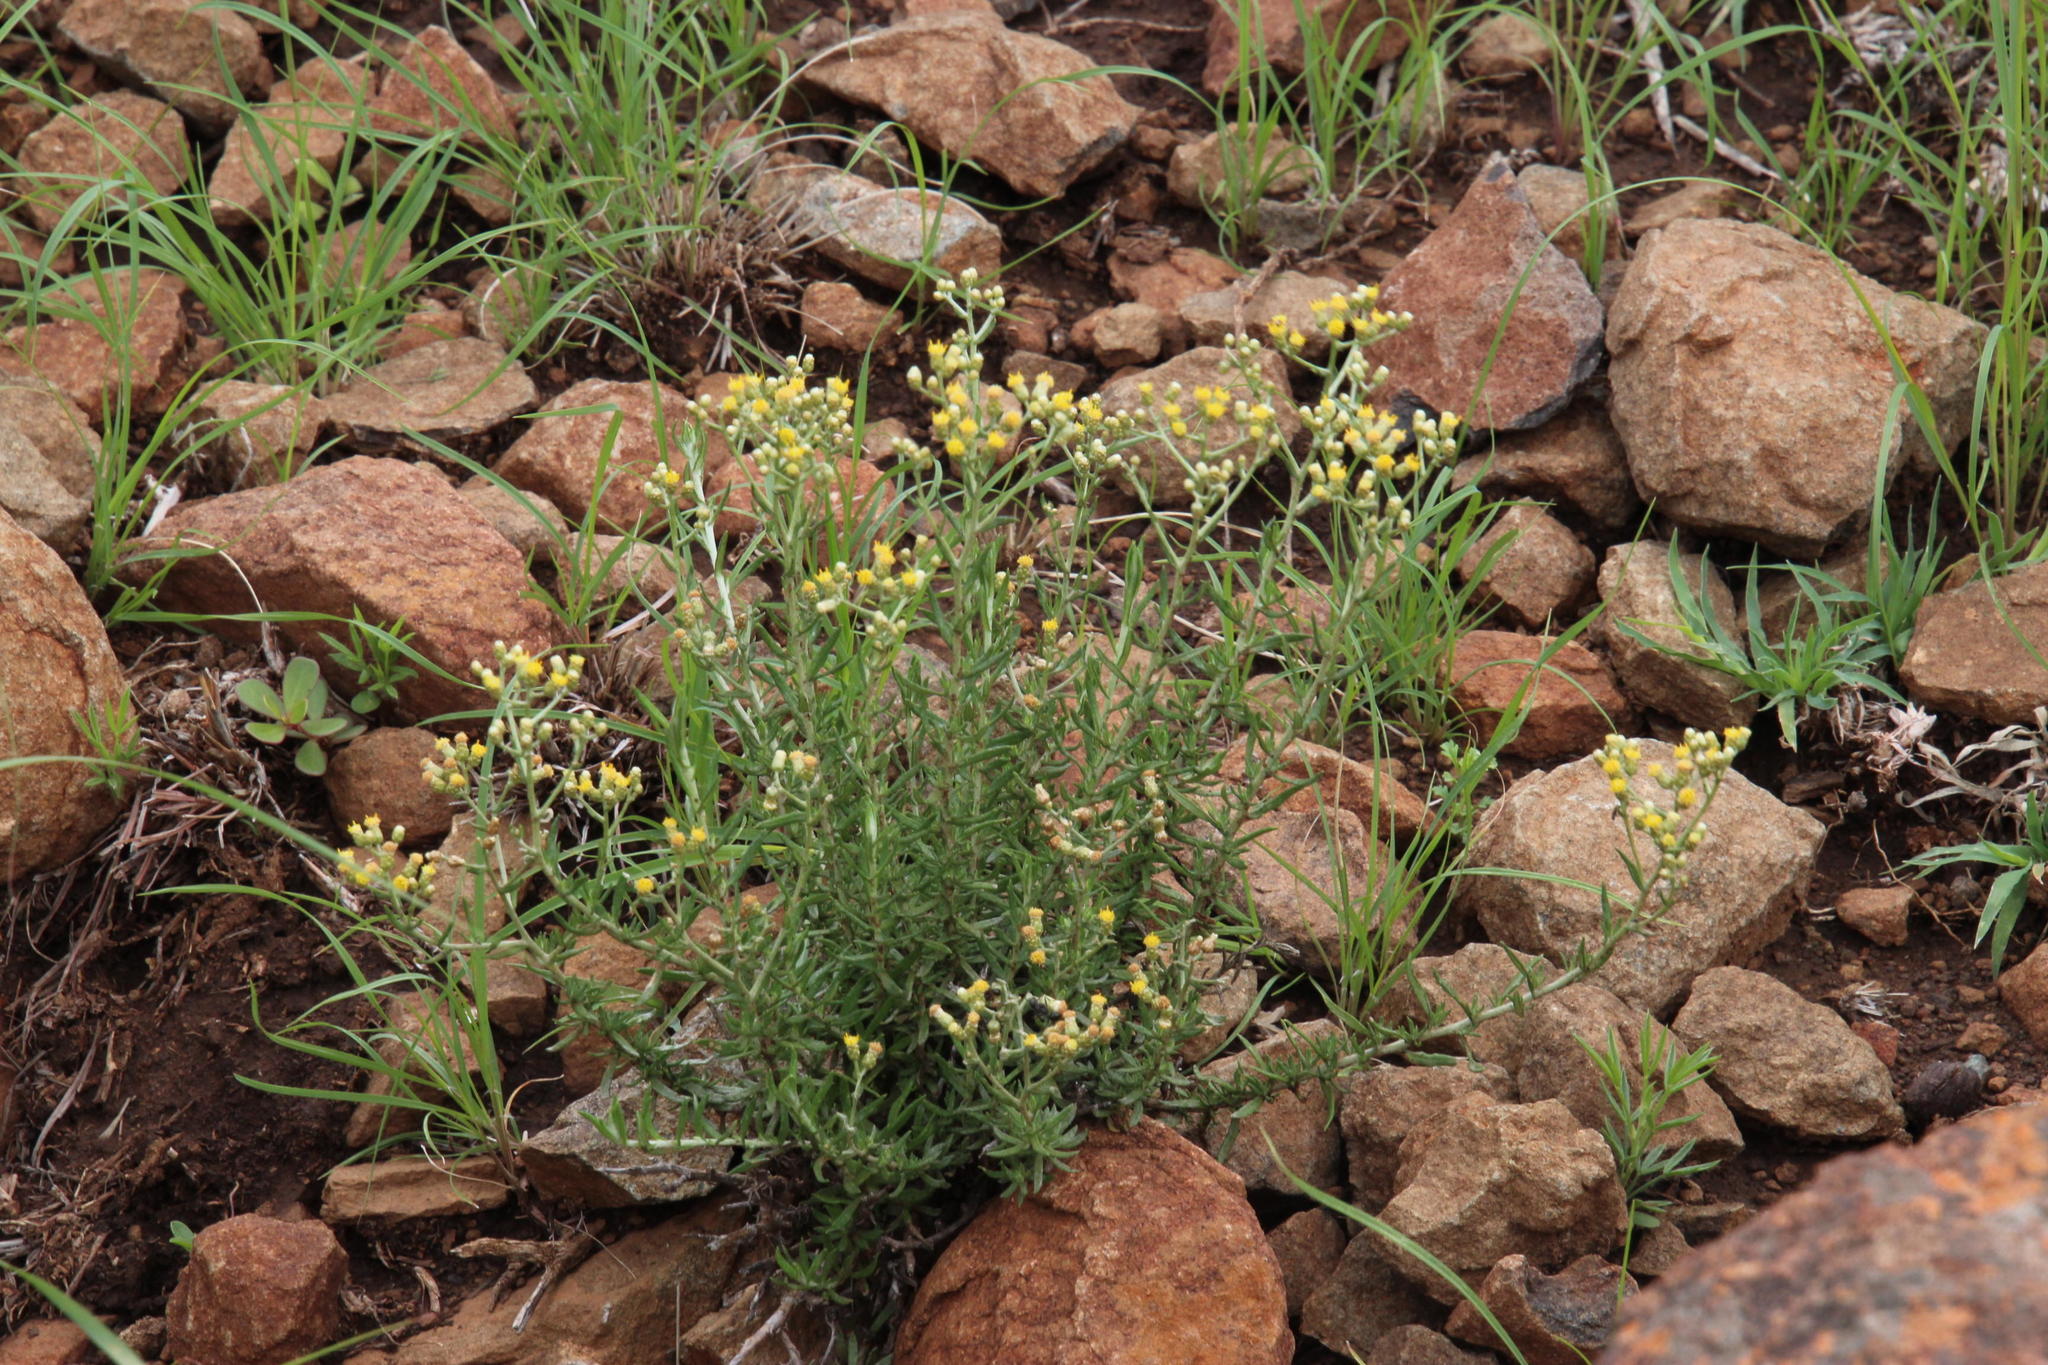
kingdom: Plantae
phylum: Tracheophyta
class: Magnoliopsida
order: Asterales
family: Asteraceae
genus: Helichrysum
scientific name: Helichrysum rosum
